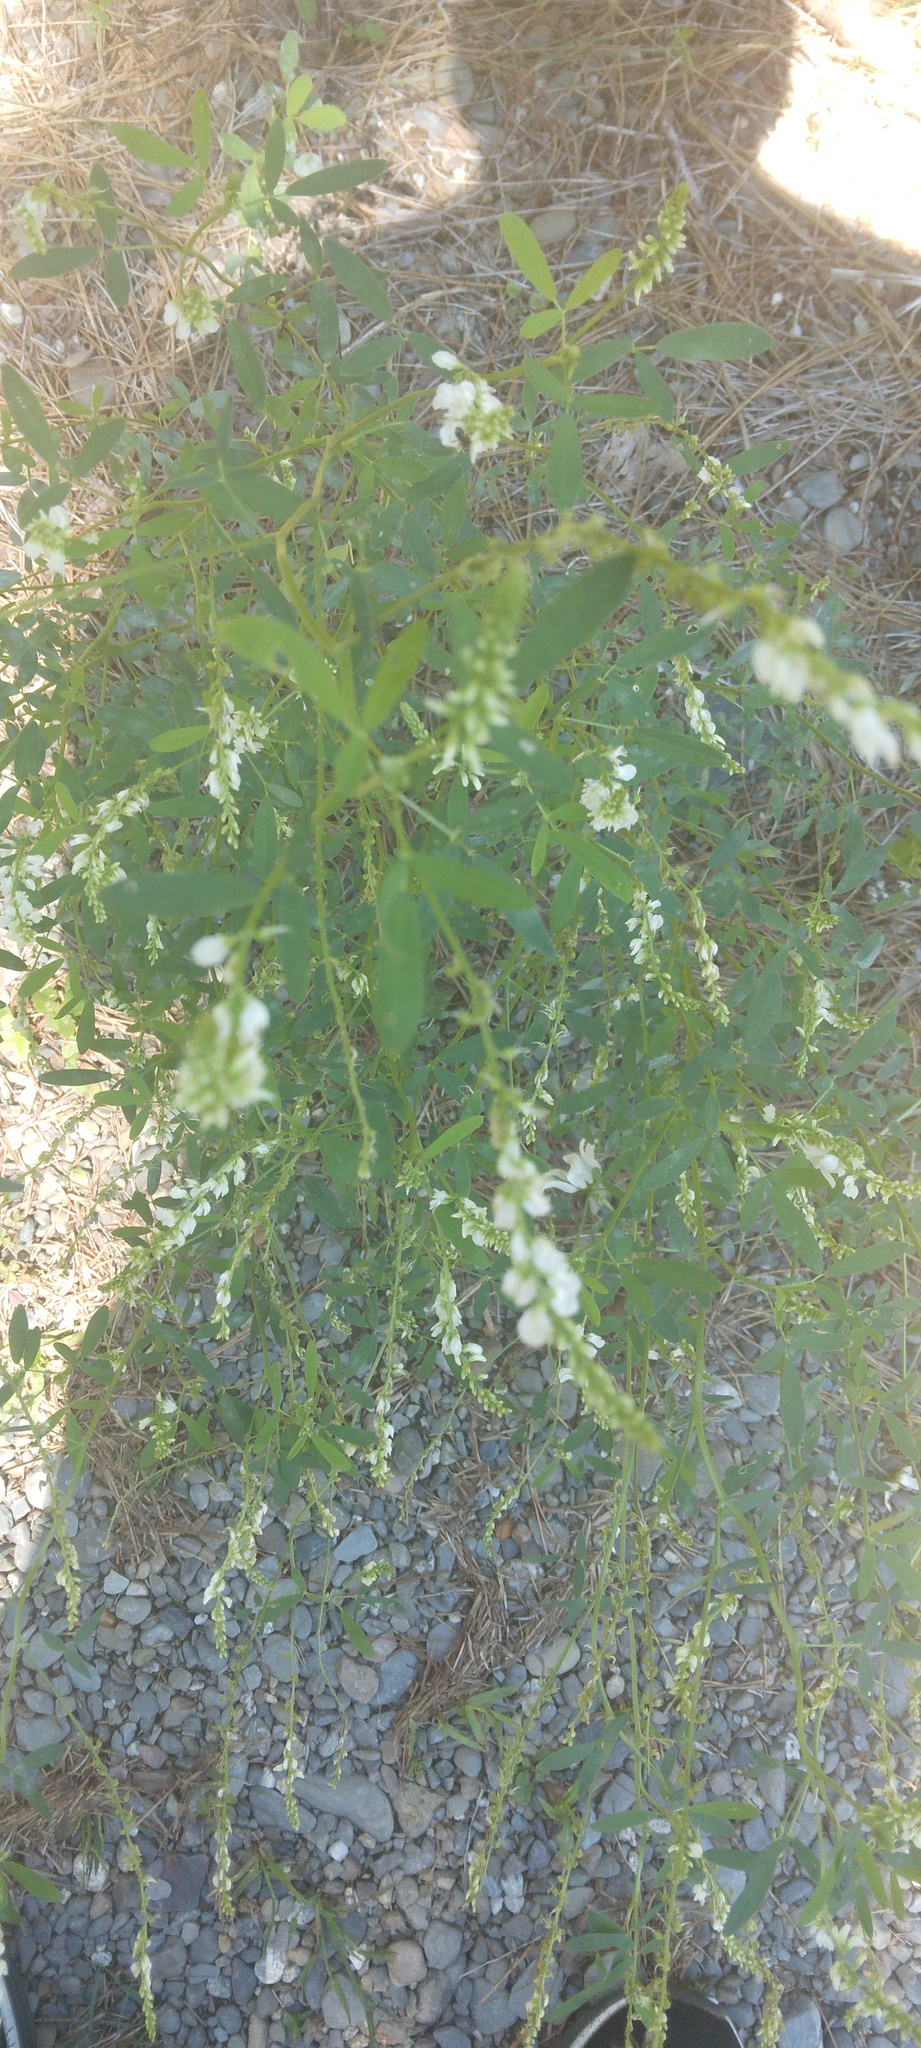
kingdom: Plantae
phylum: Tracheophyta
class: Magnoliopsida
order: Fabales
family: Fabaceae
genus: Melilotus
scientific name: Melilotus albus
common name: White melilot
